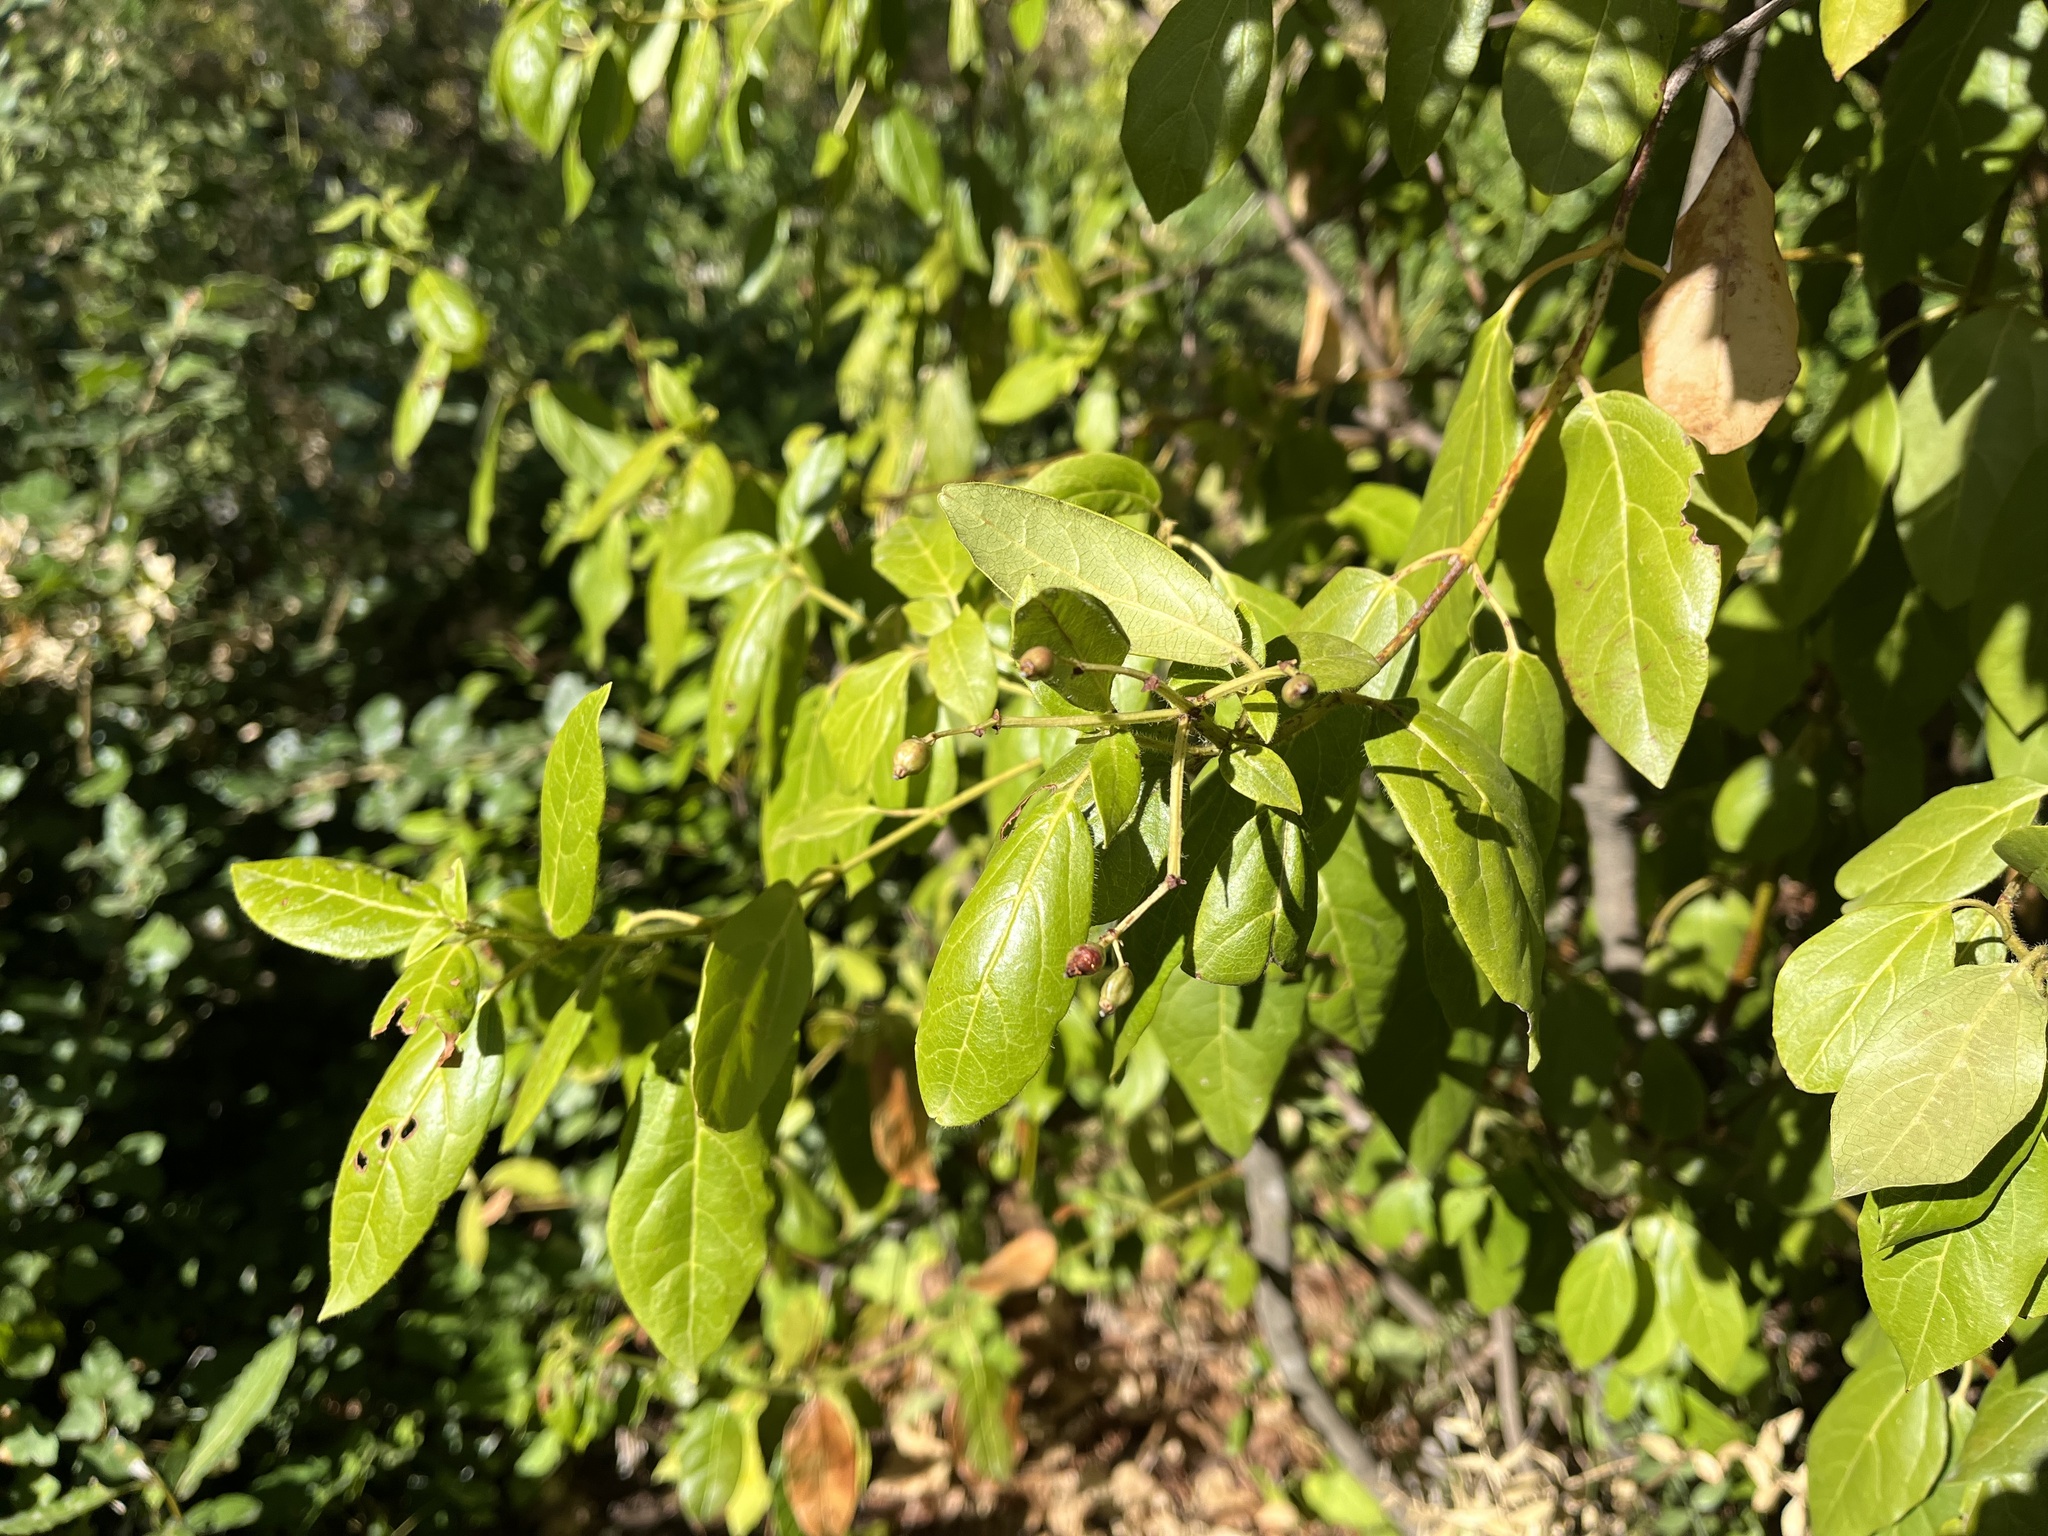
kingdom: Plantae
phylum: Tracheophyta
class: Magnoliopsida
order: Dipsacales
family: Viburnaceae
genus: Viburnum
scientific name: Viburnum tinus
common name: Laurustinus
